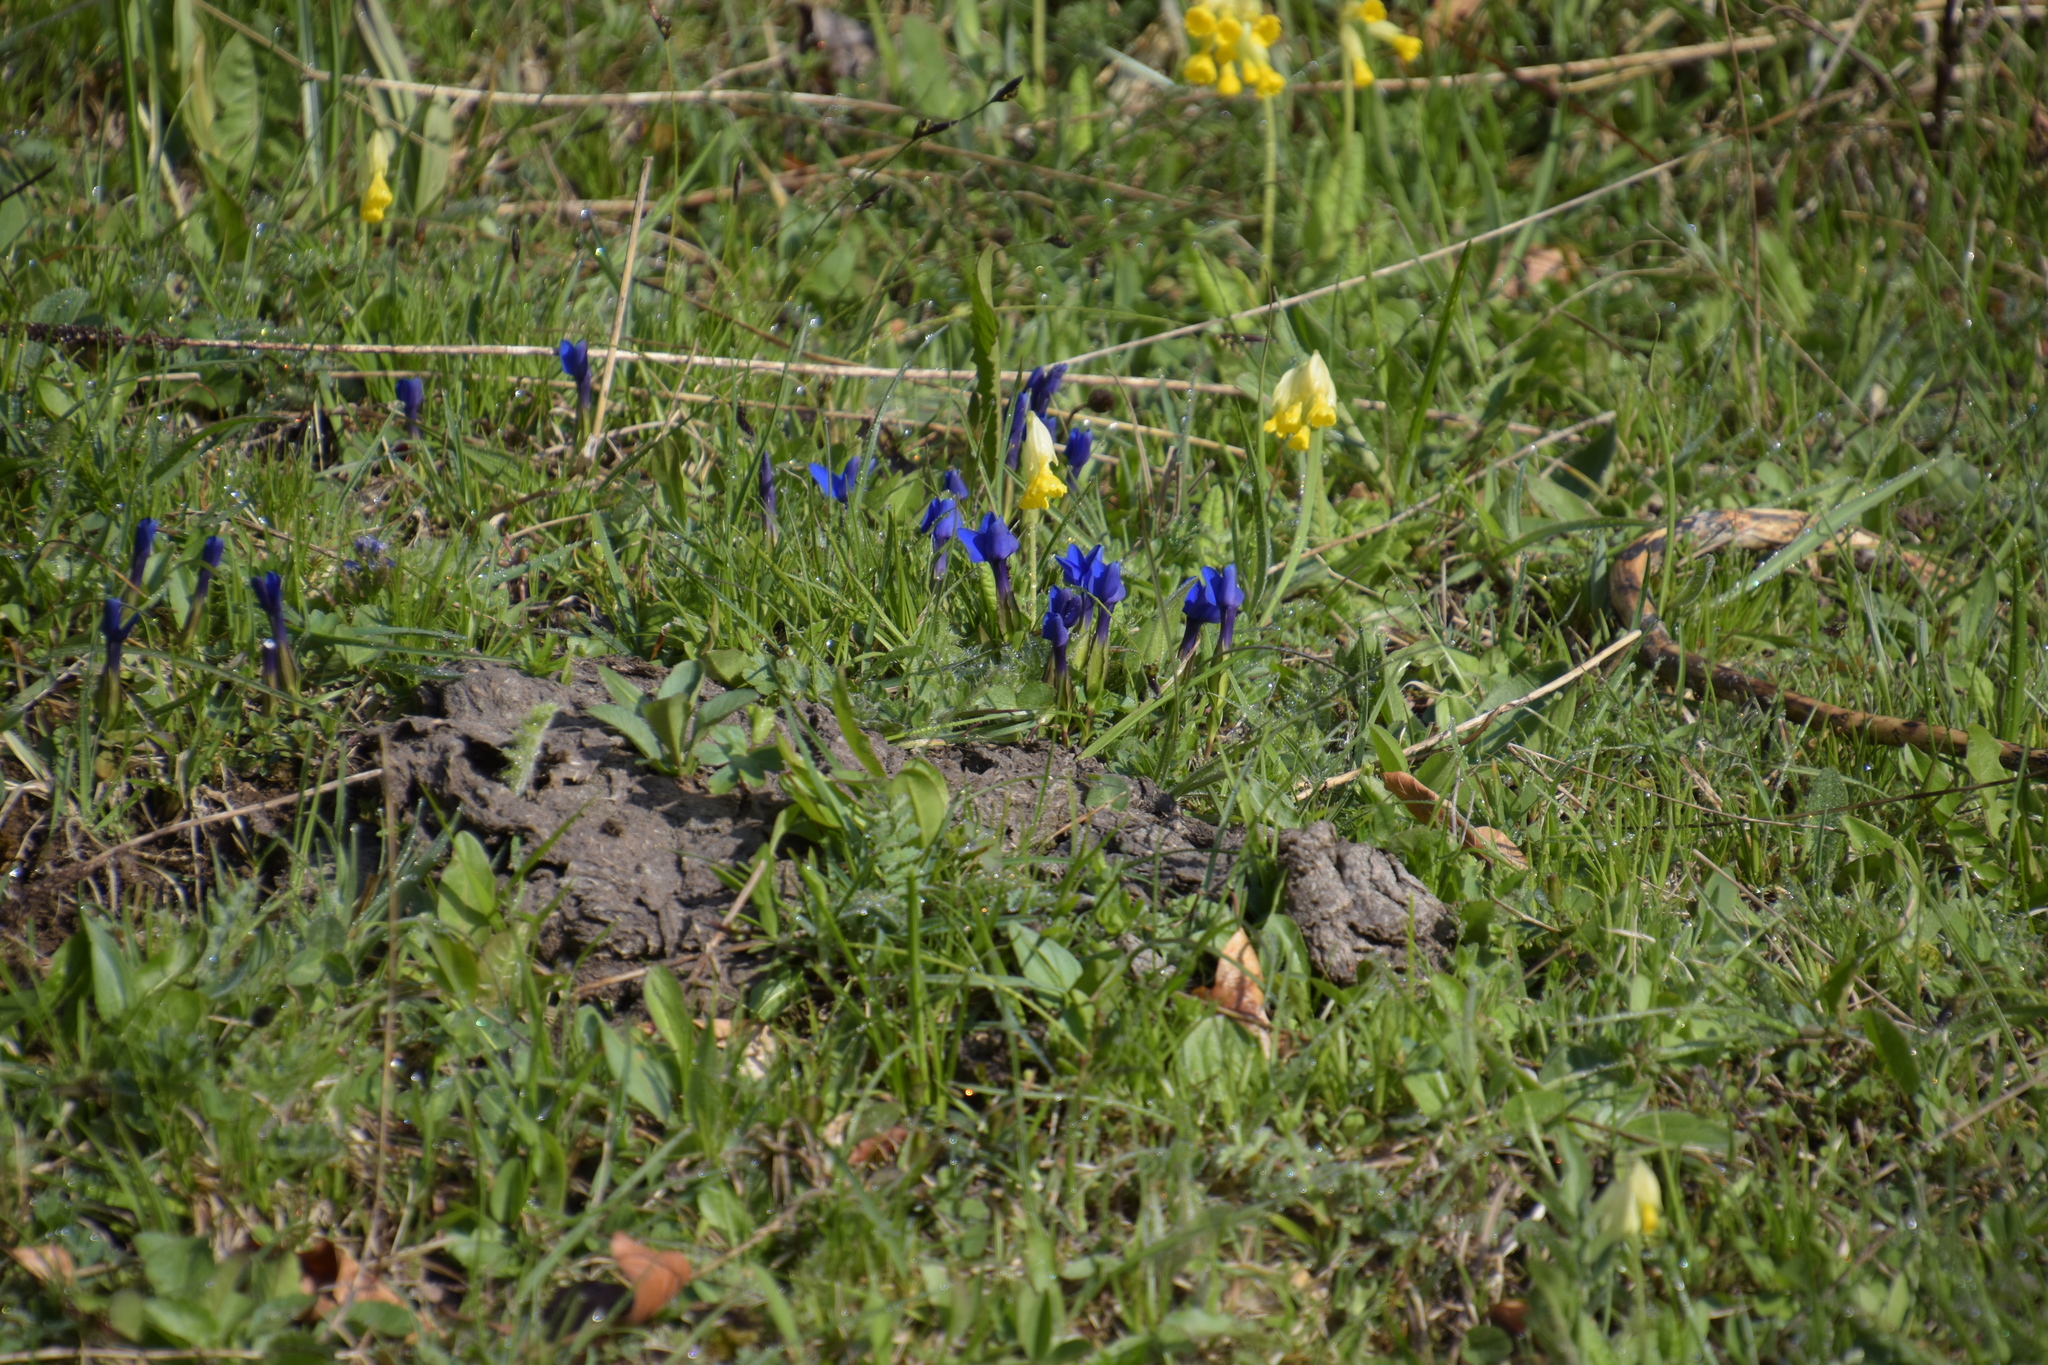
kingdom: Plantae
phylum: Tracheophyta
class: Magnoliopsida
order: Gentianales
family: Gentianaceae
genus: Gentiana
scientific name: Gentiana verna
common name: Spring gentian
